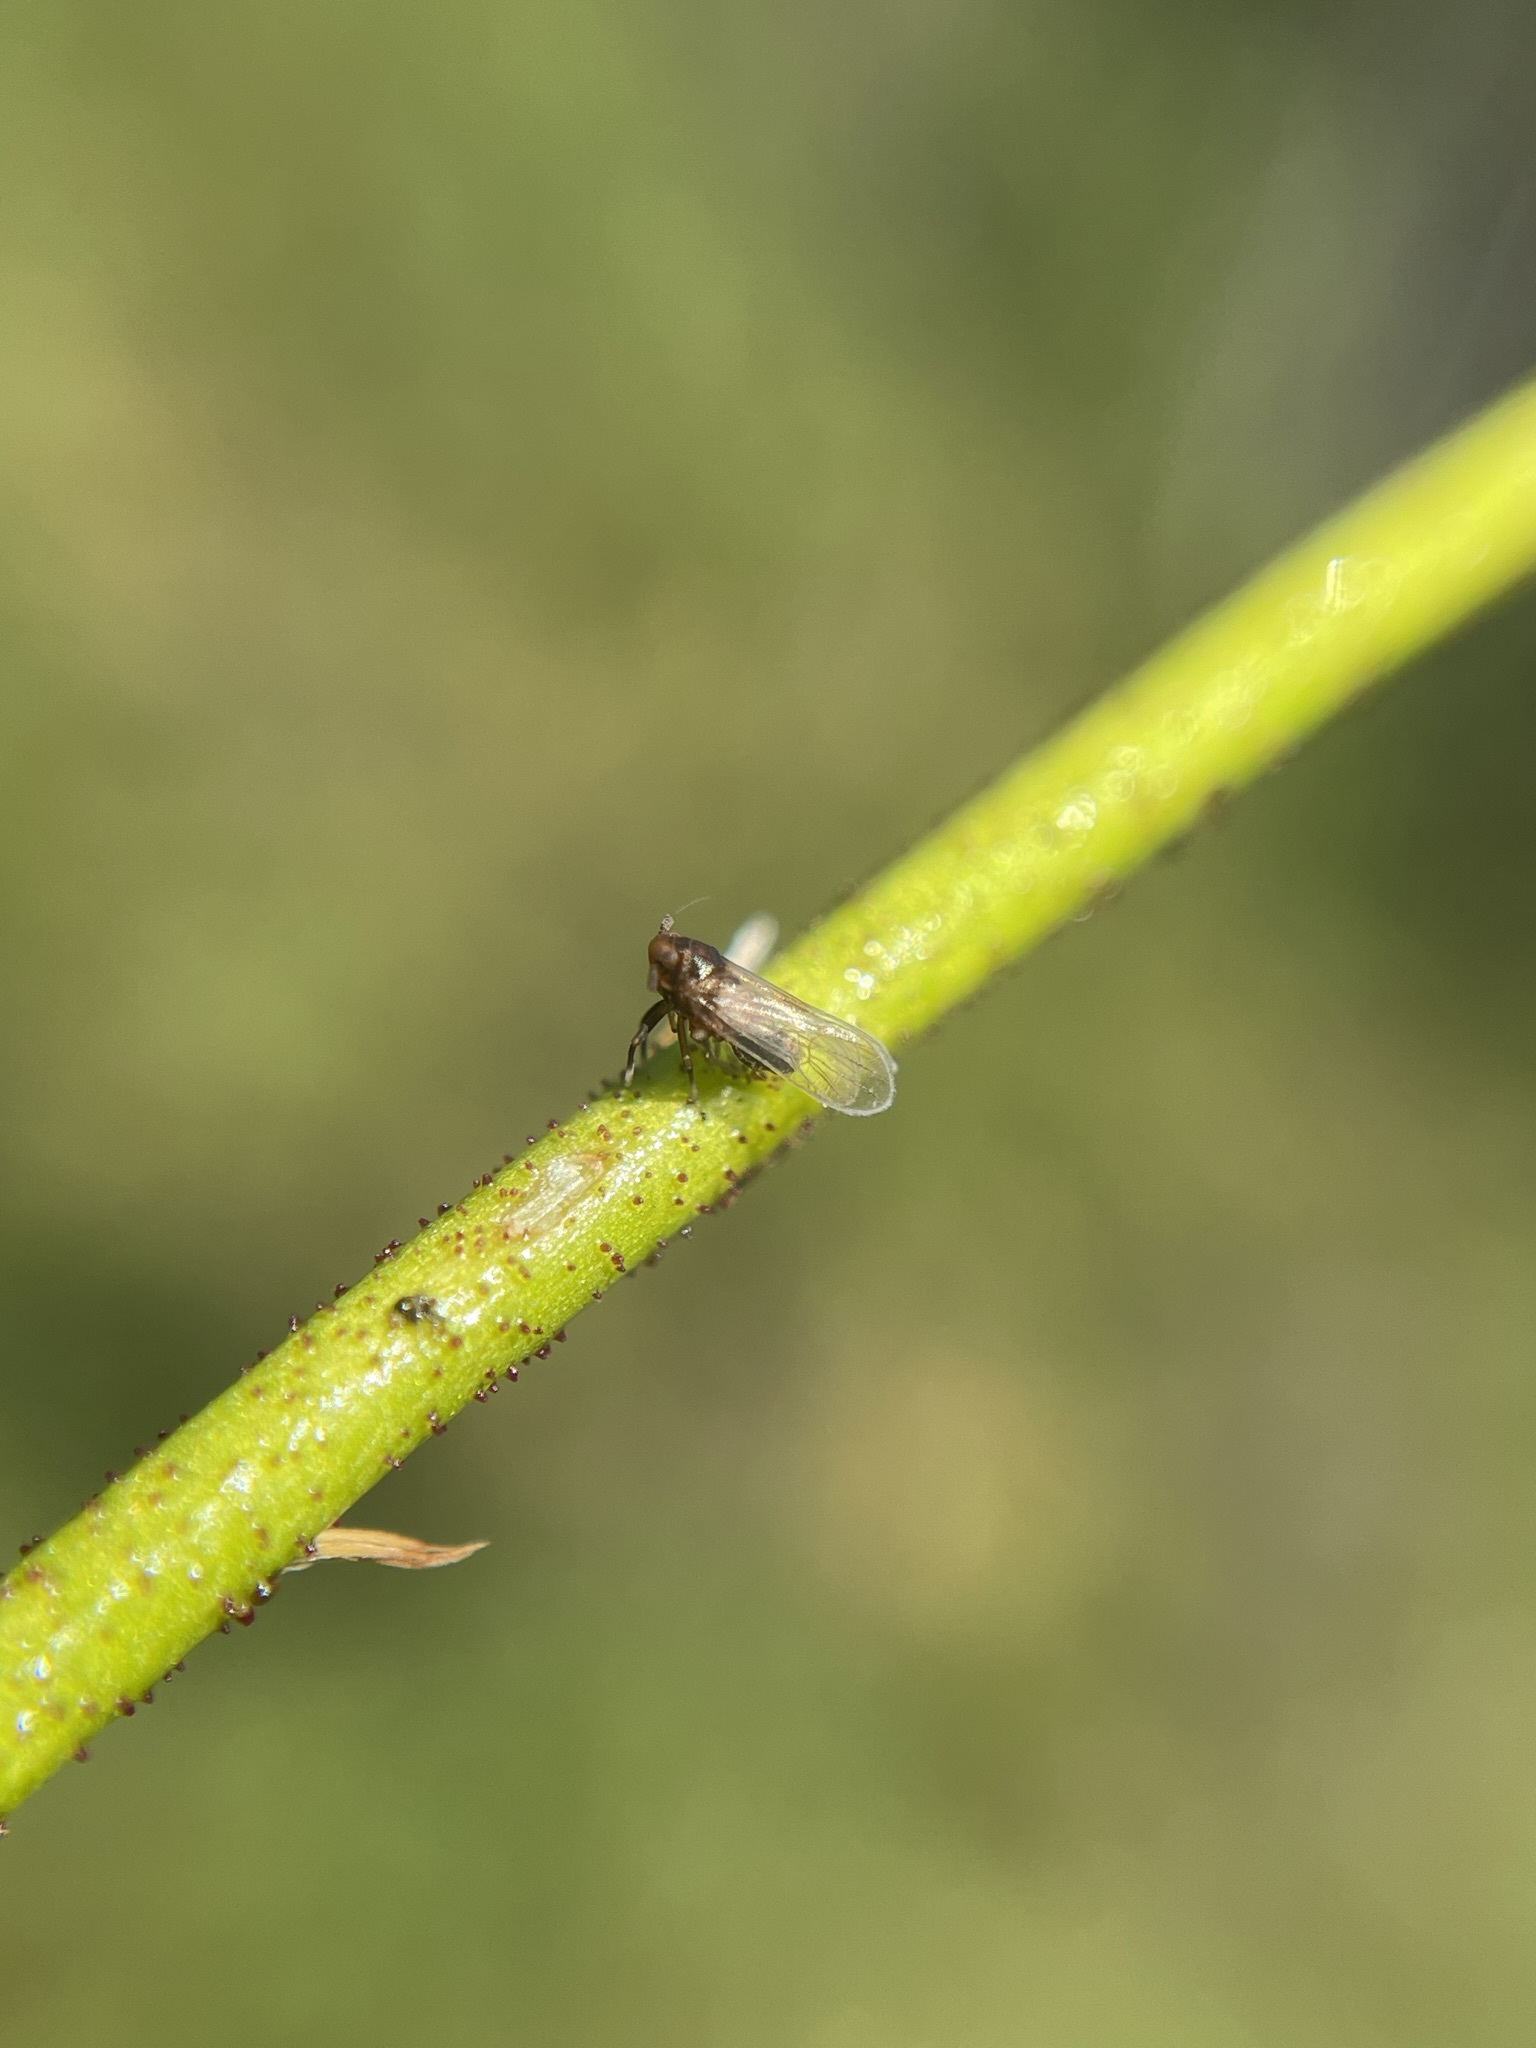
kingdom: Plantae
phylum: Tracheophyta
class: Liliopsida
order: Alismatales
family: Tofieldiaceae
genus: Triantha
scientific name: Triantha occidentalis
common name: Western false asphodel
